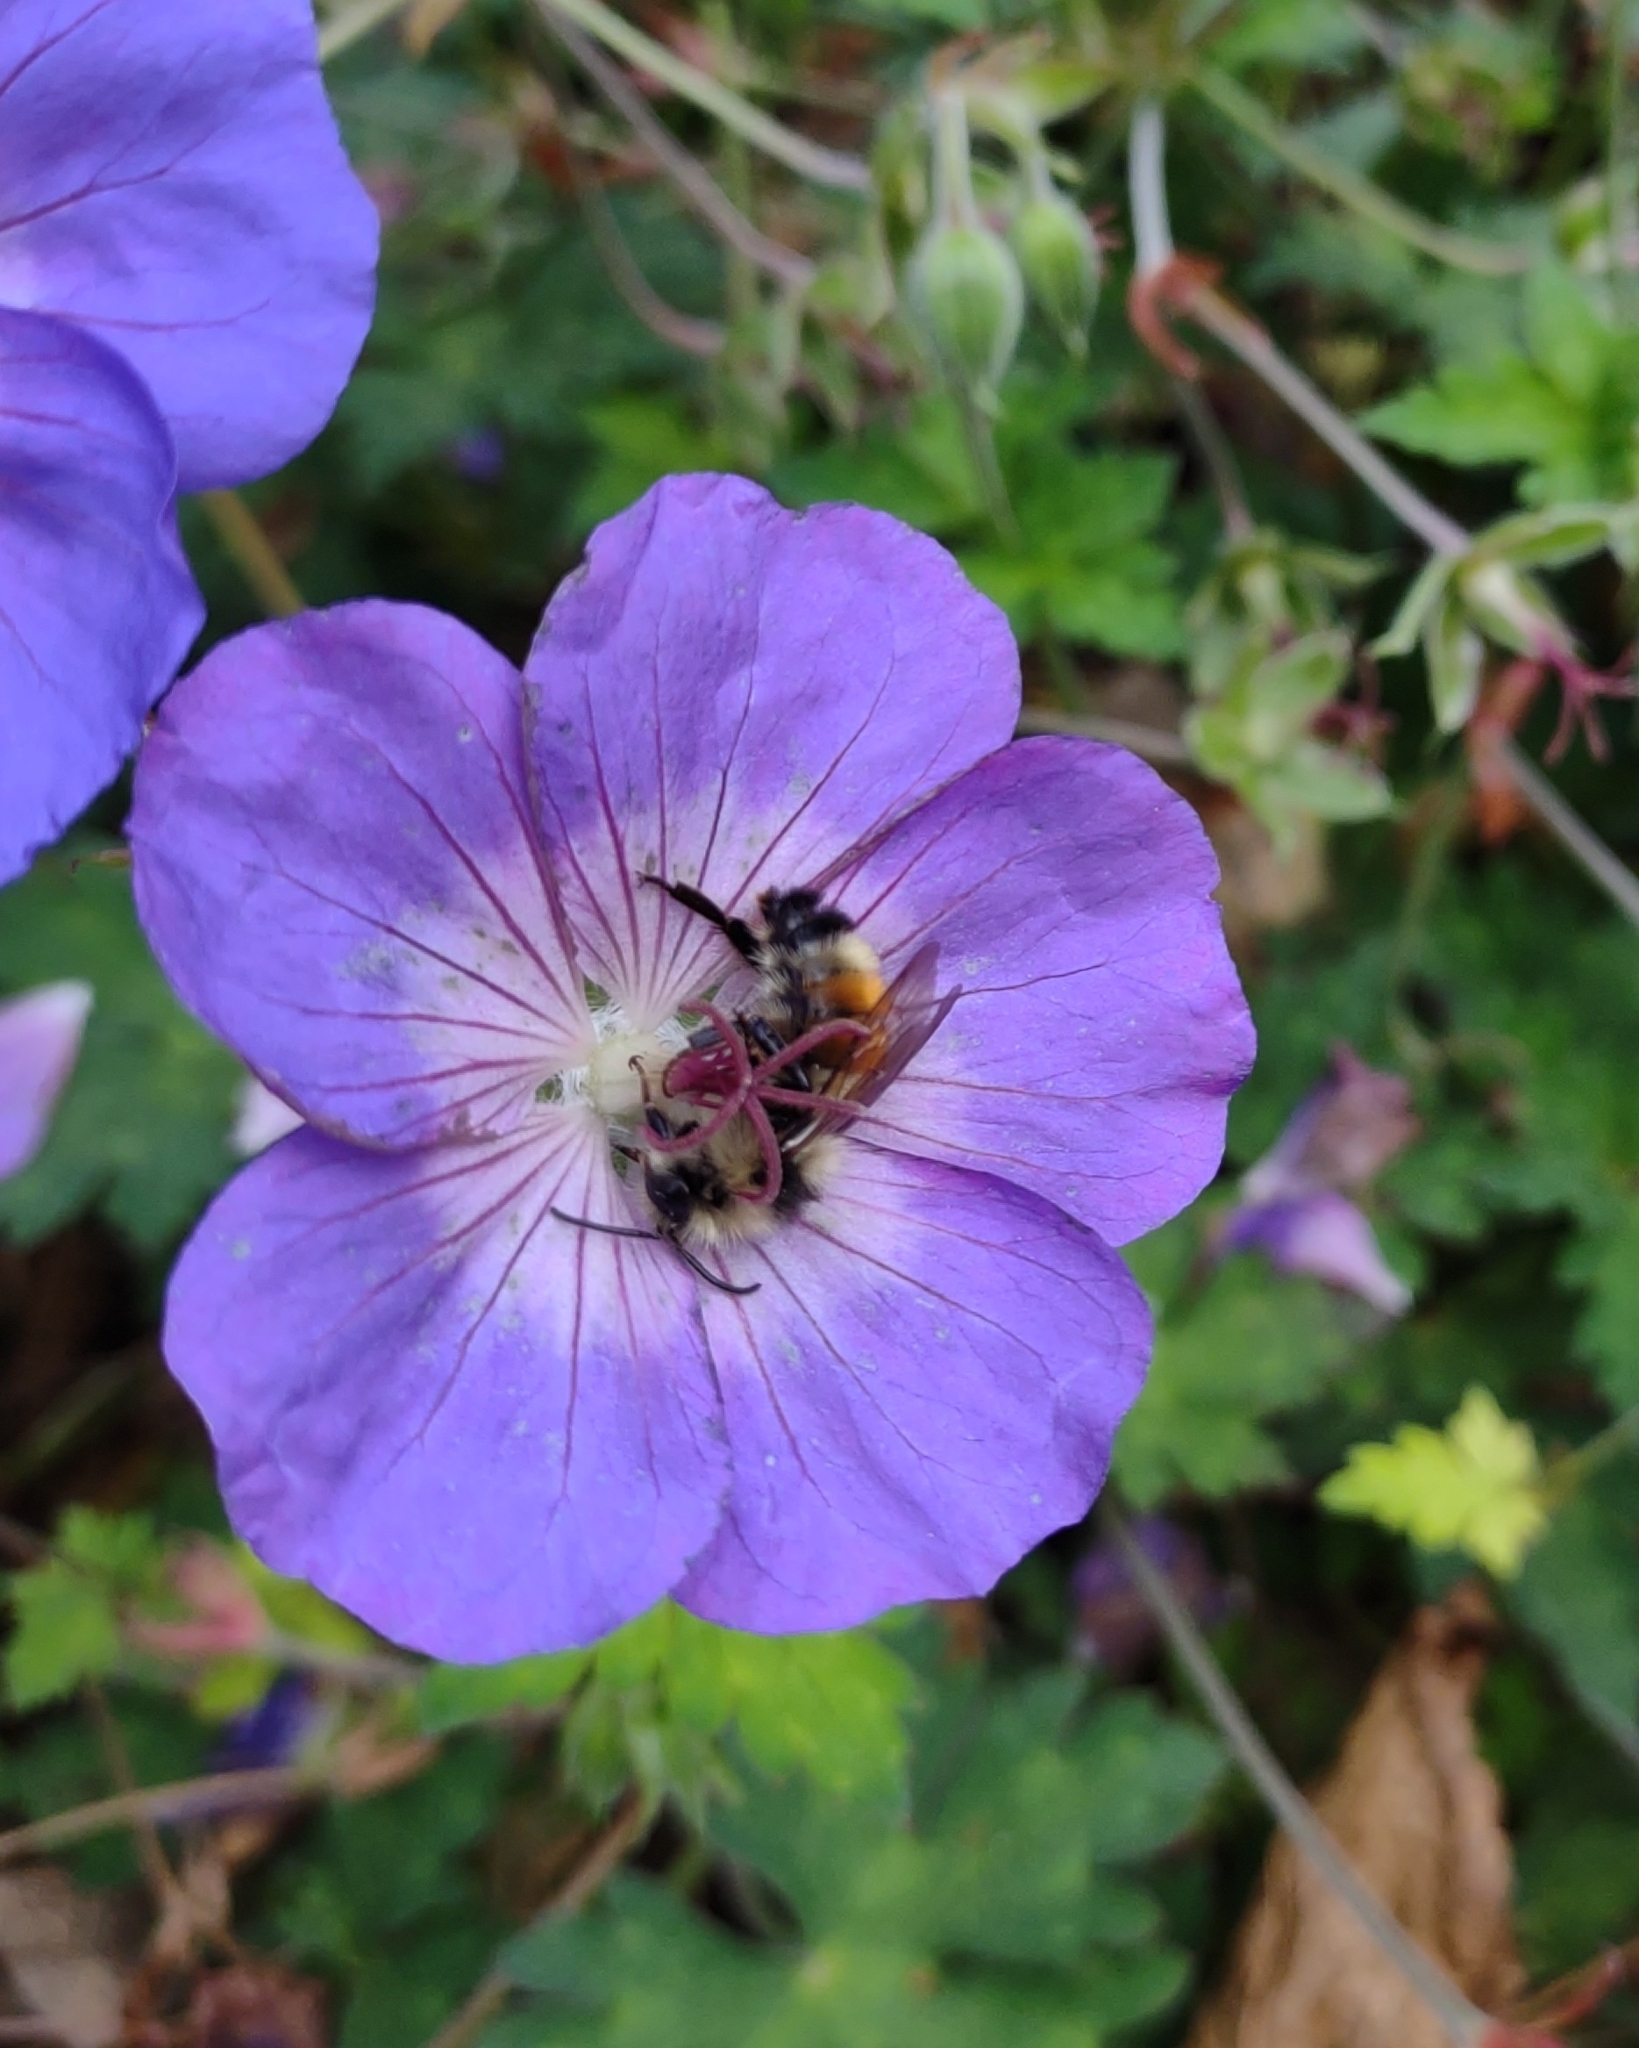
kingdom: Animalia
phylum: Arthropoda
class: Insecta
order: Hymenoptera
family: Apidae
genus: Bombus
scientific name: Bombus ternarius
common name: Tri-colored bumble bee
